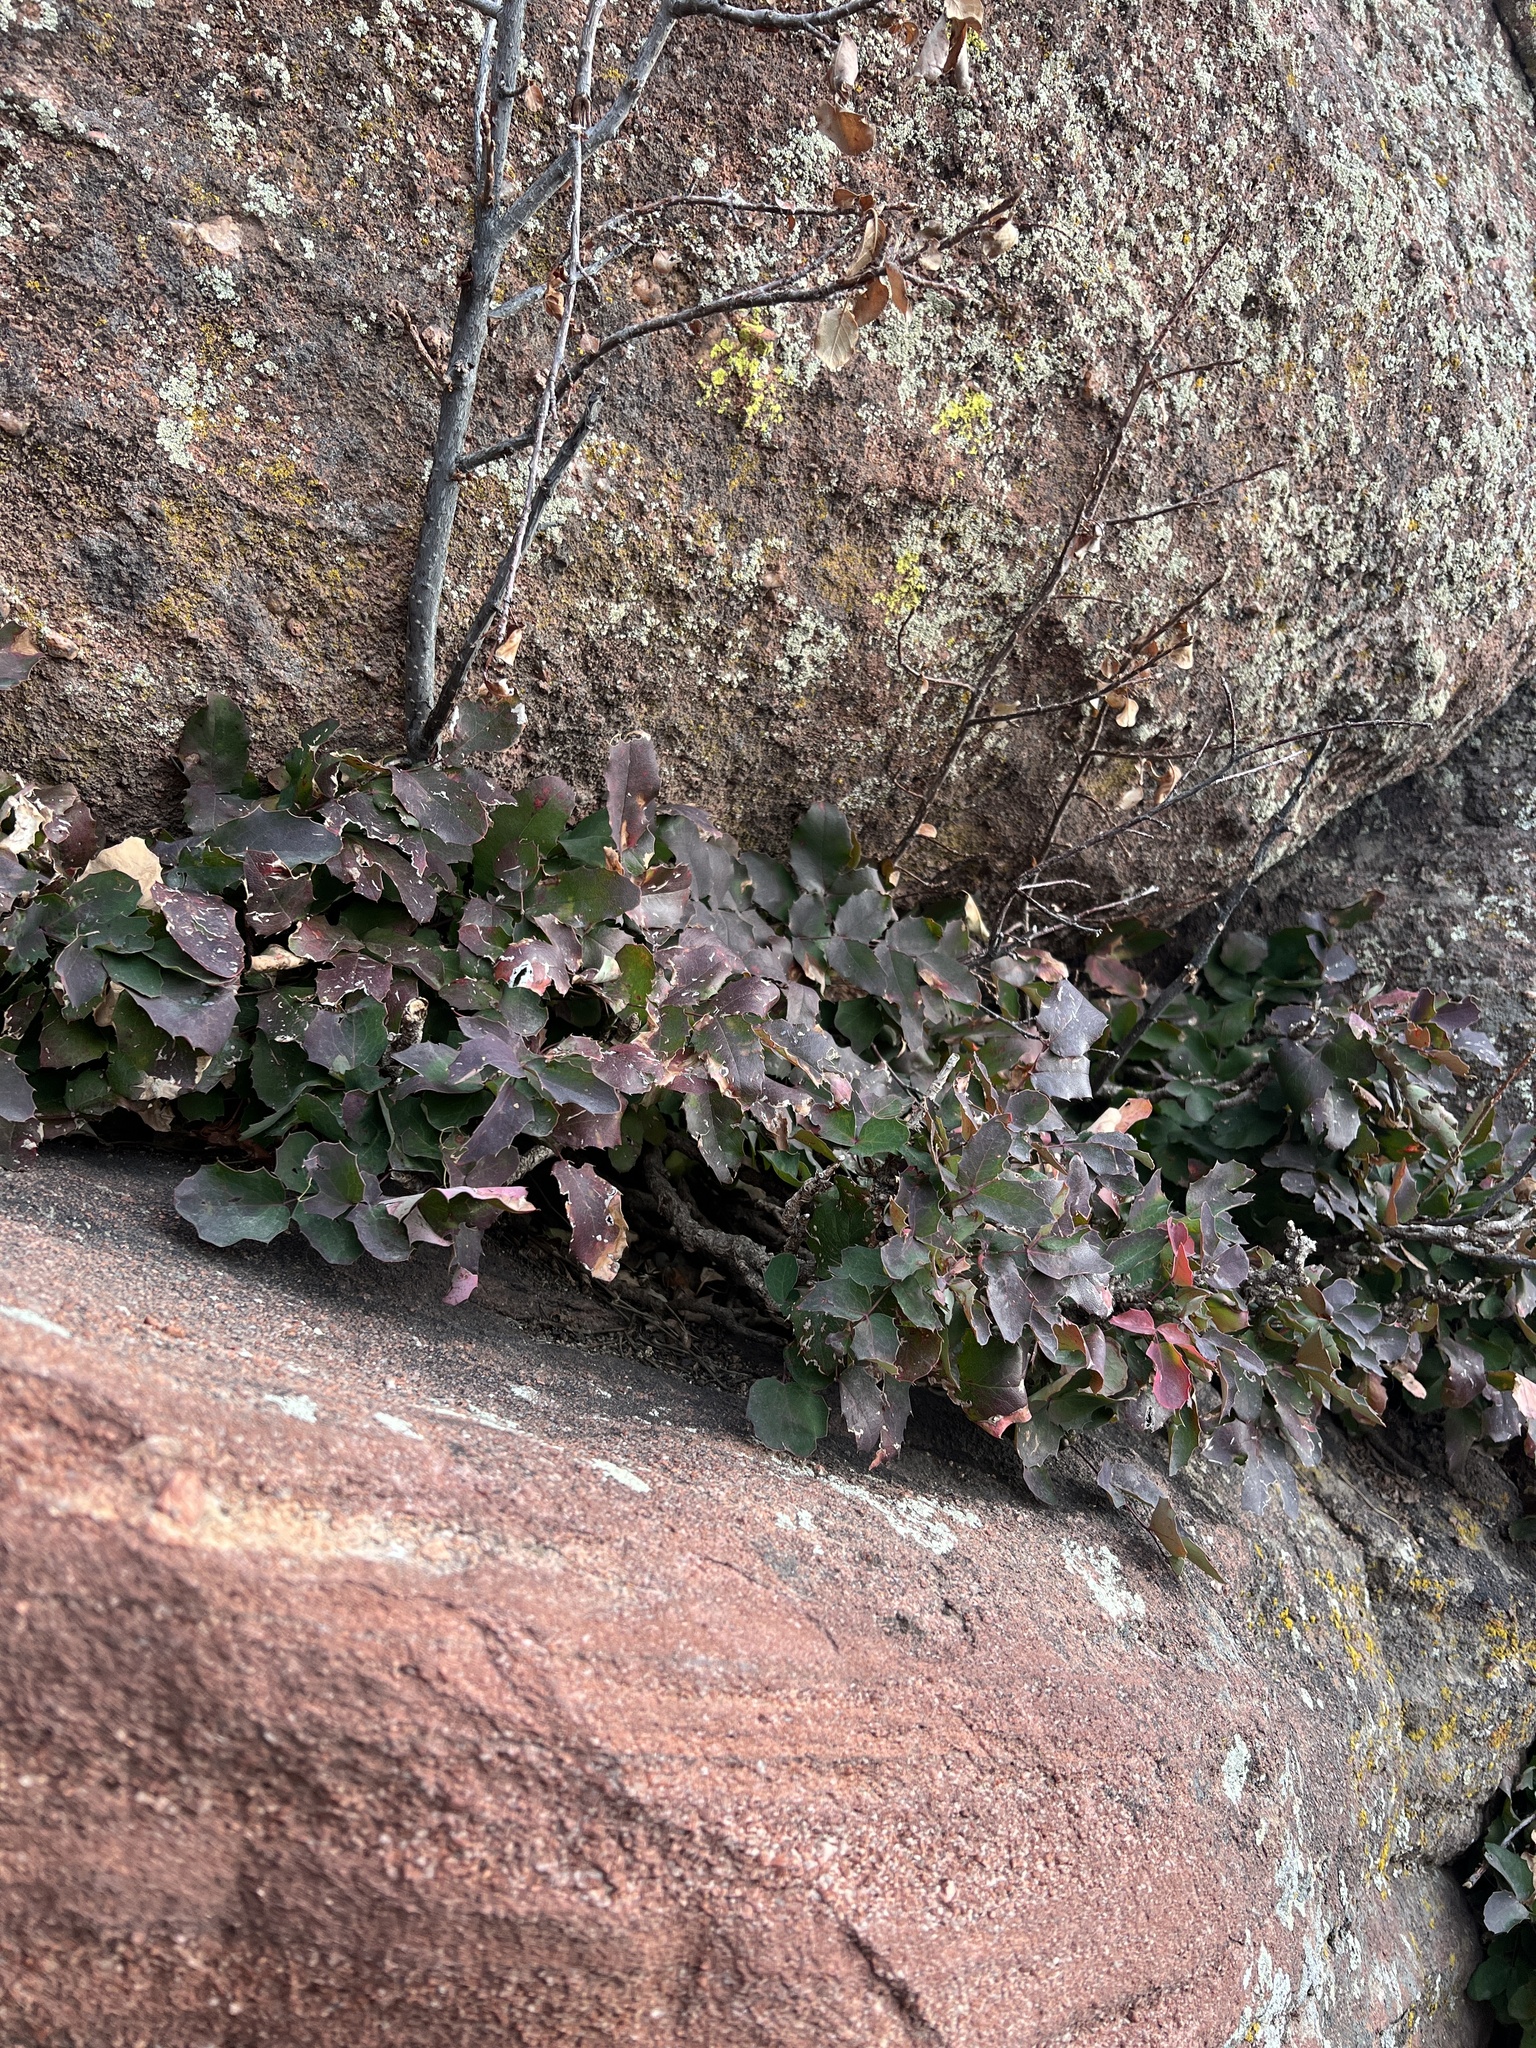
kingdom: Plantae
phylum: Tracheophyta
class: Magnoliopsida
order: Ranunculales
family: Berberidaceae
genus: Mahonia
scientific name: Mahonia repens
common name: Creeping oregon-grape
